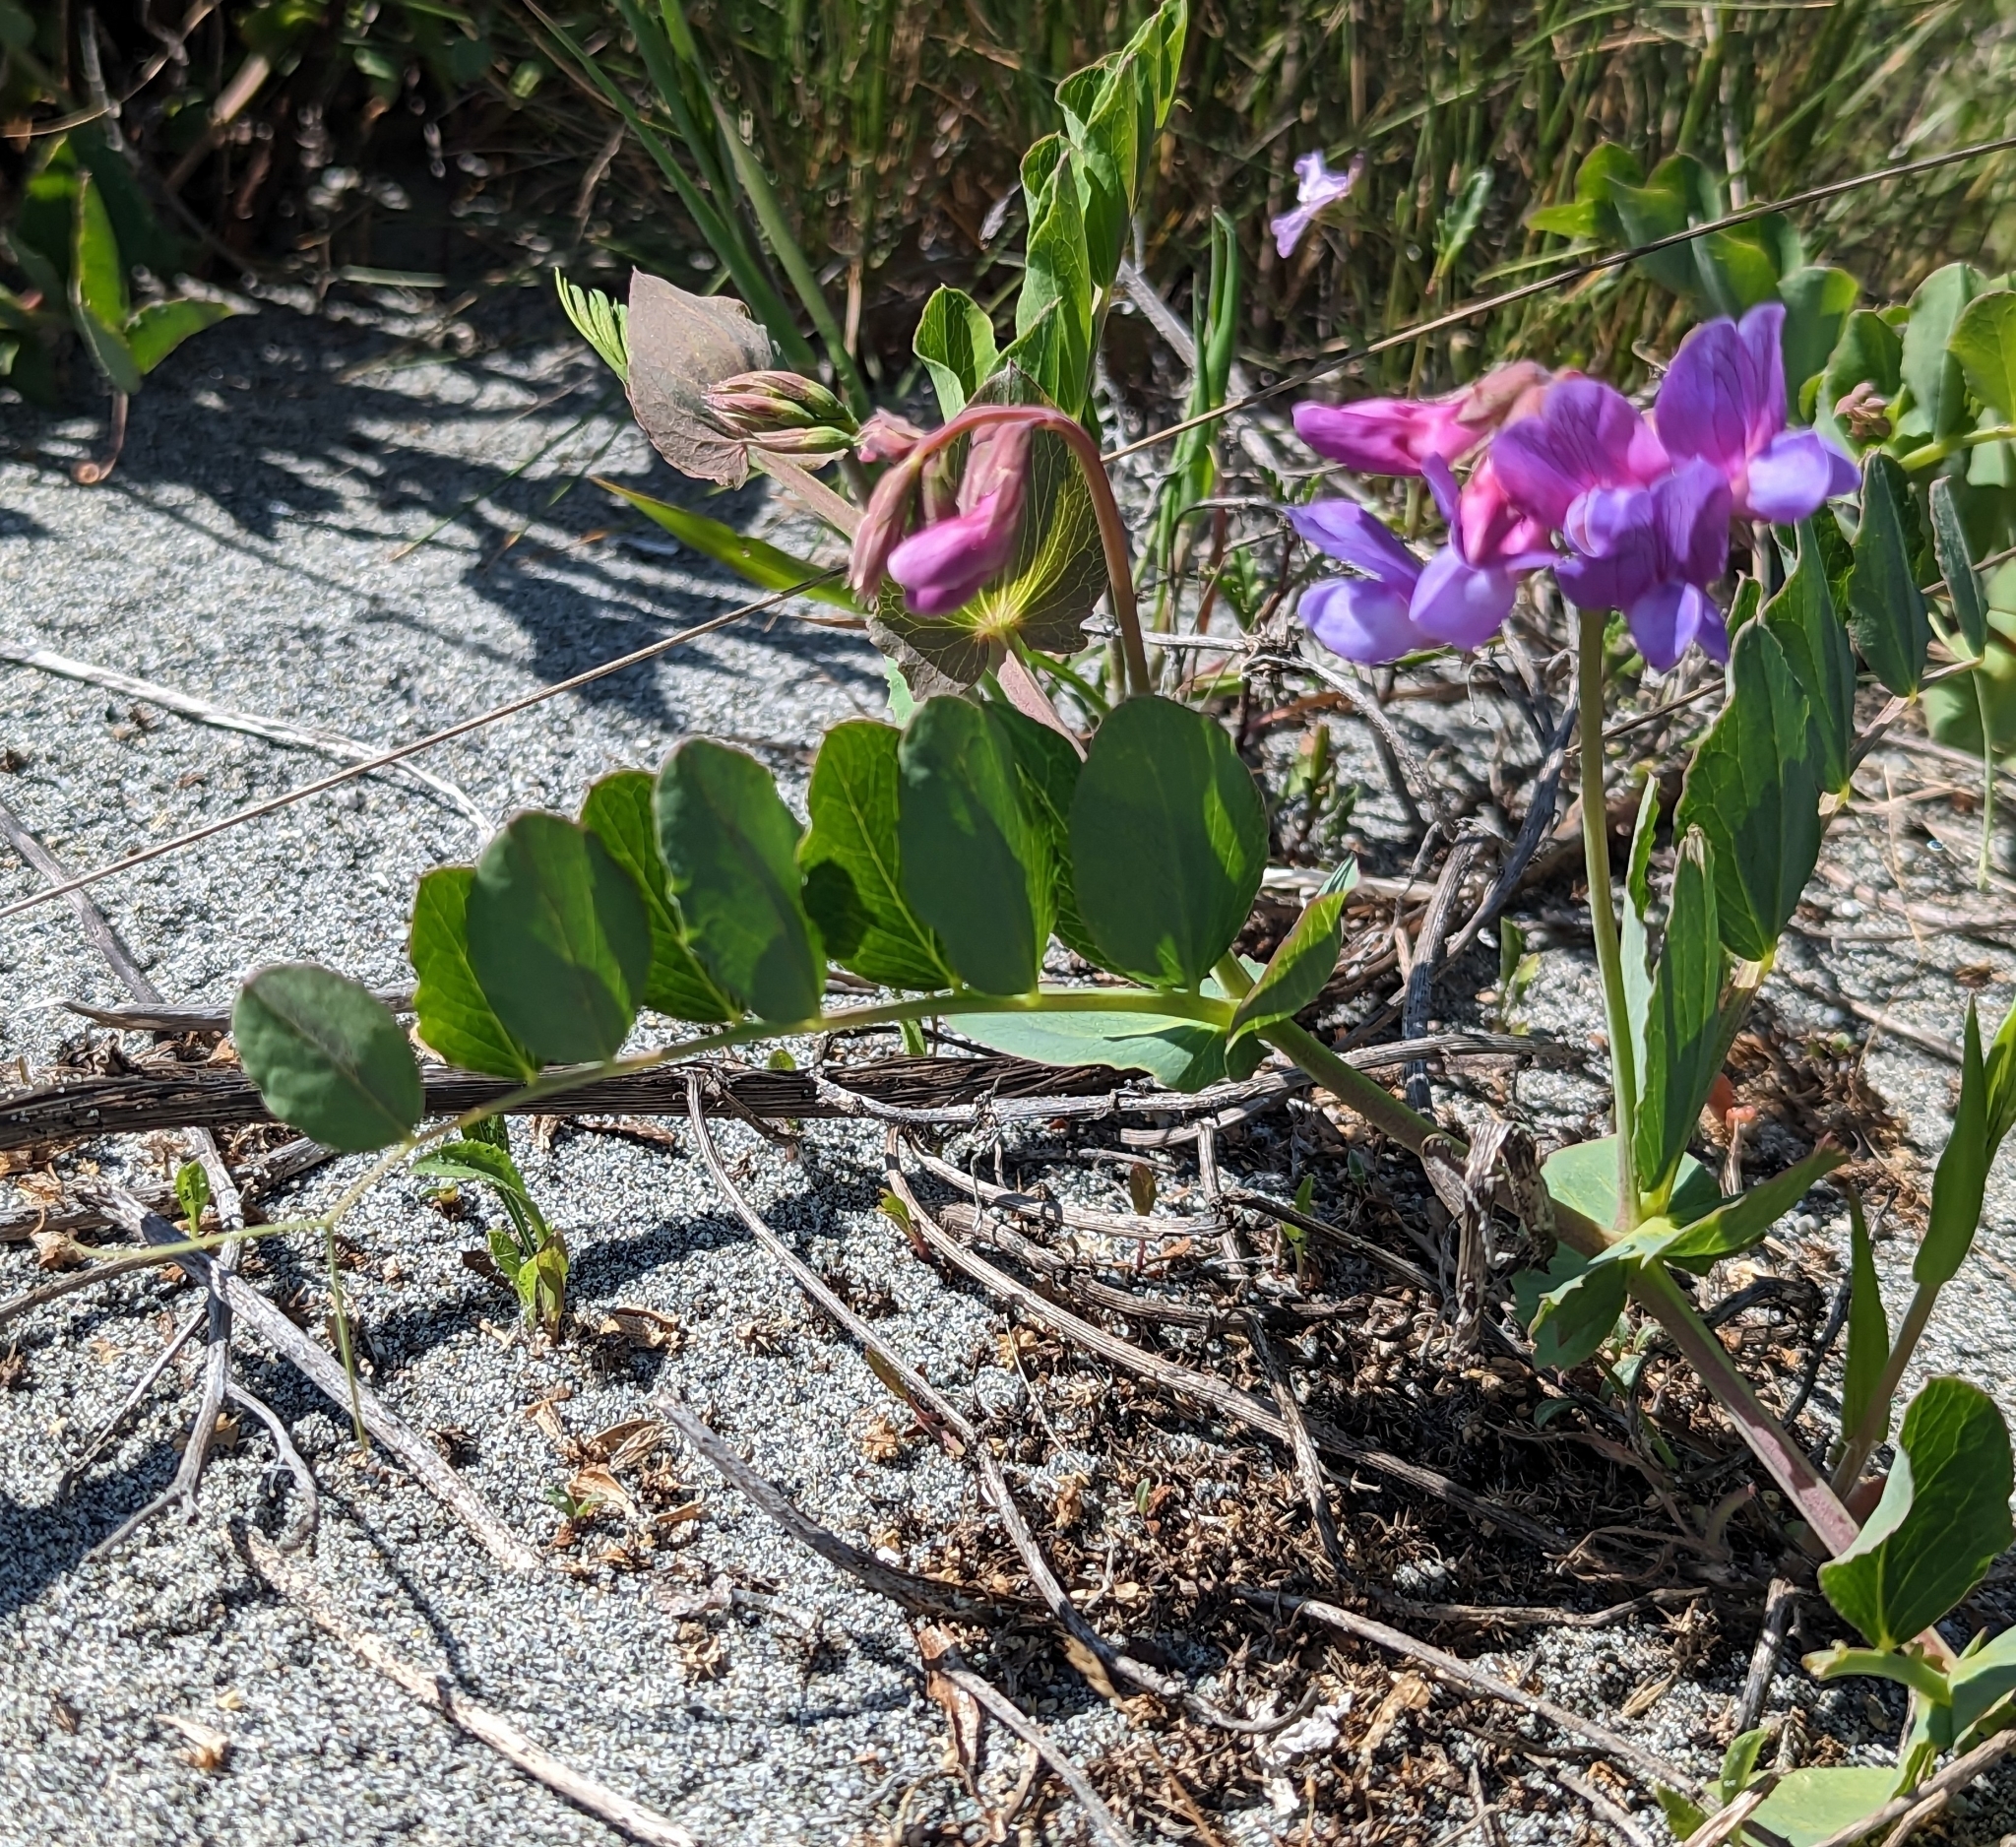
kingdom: Plantae
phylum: Tracheophyta
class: Magnoliopsida
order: Fabales
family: Fabaceae
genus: Lathyrus
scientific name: Lathyrus japonicus
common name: Sea pea
